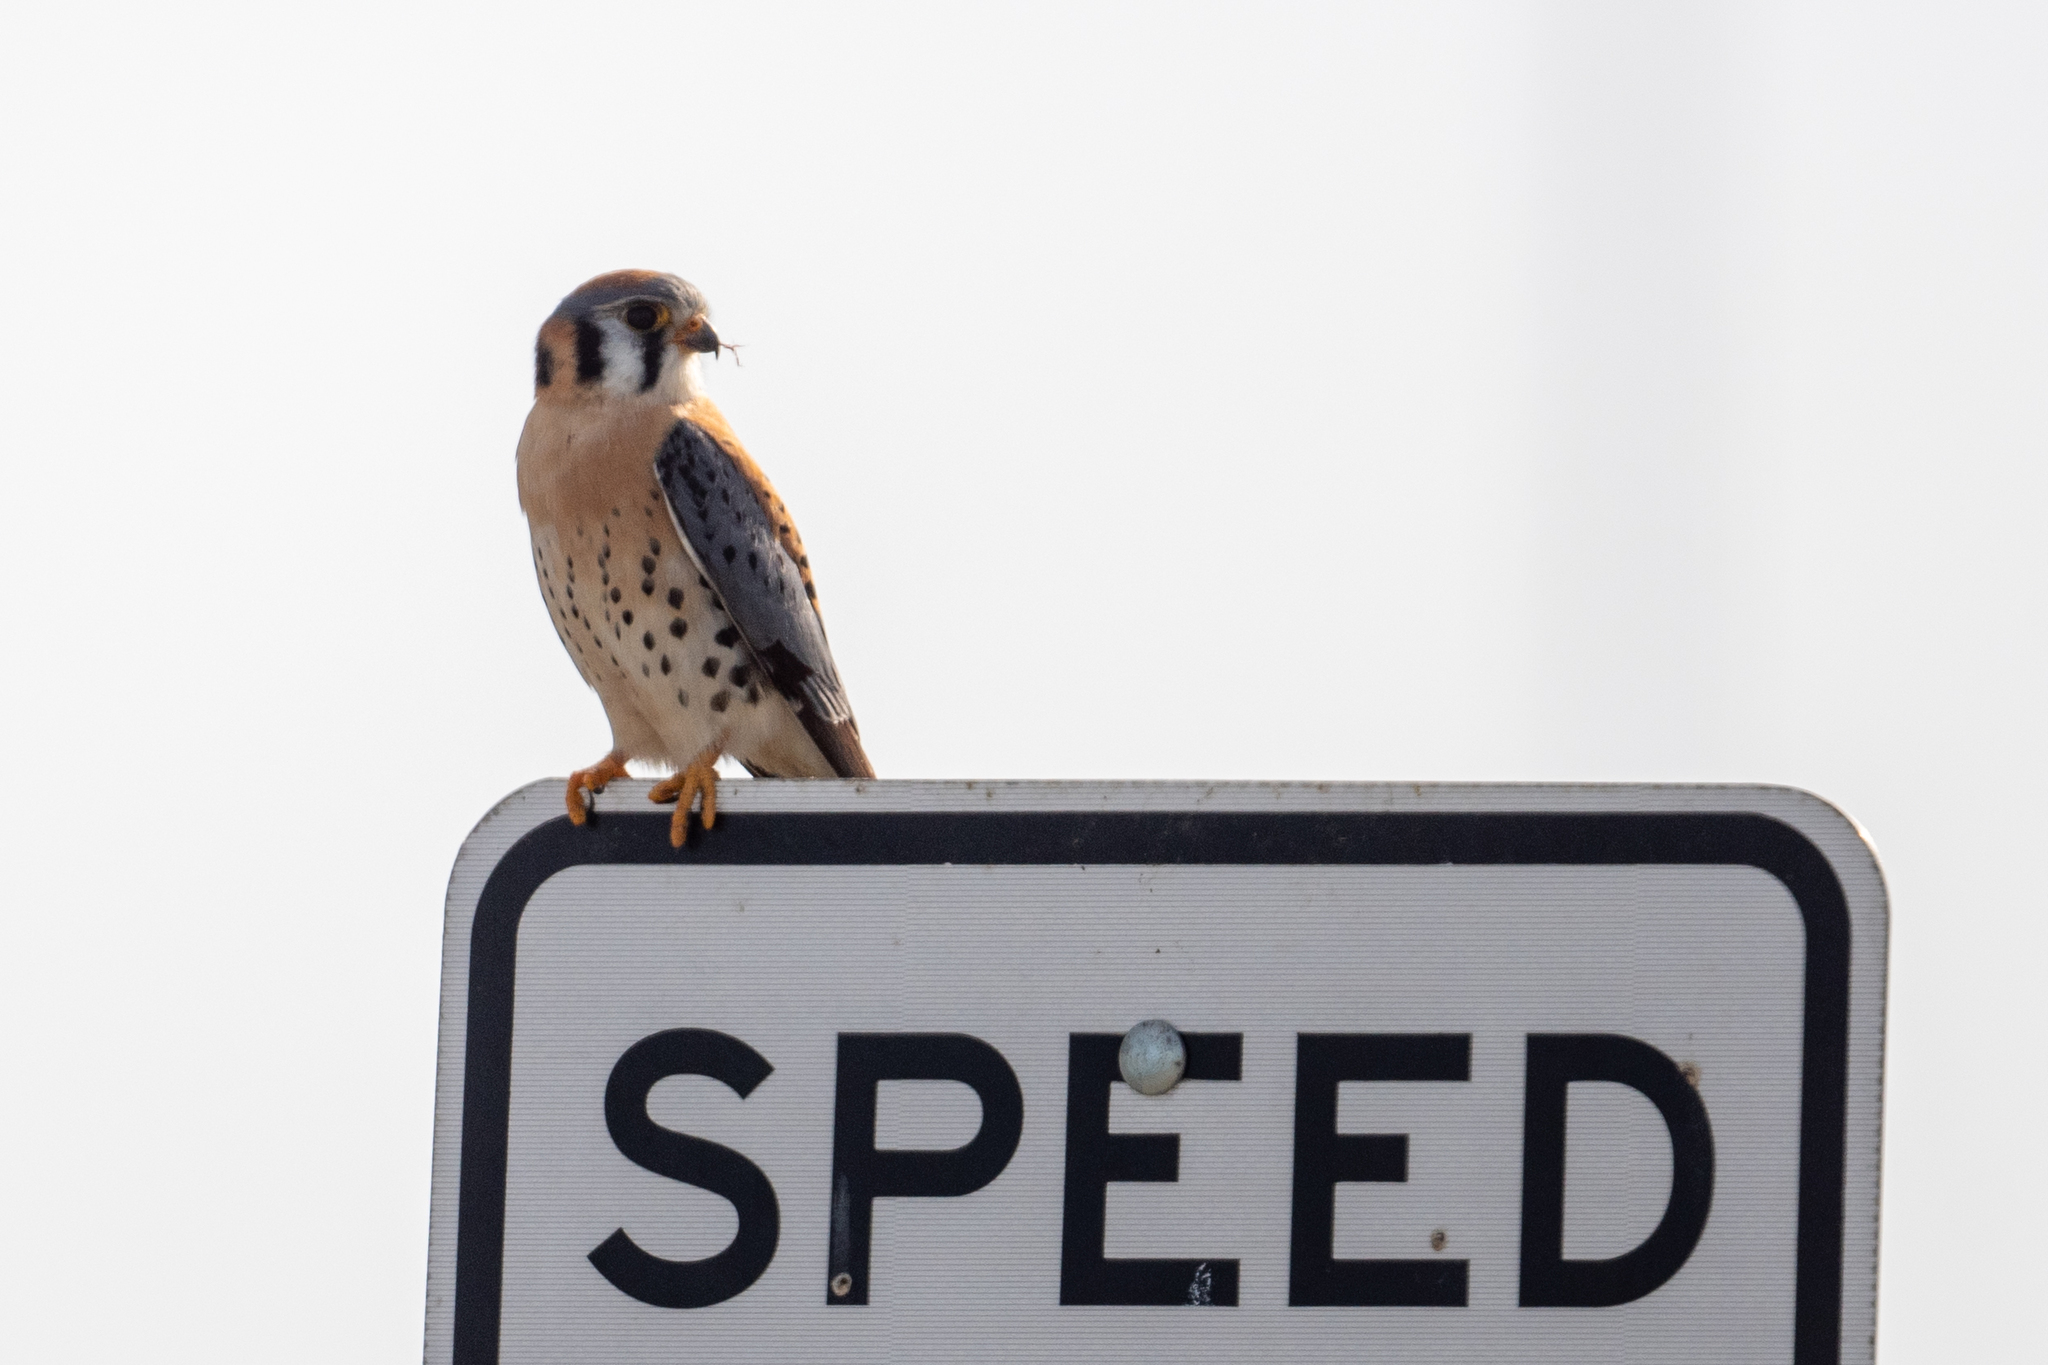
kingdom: Animalia
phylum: Chordata
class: Aves
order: Falconiformes
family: Falconidae
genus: Falco
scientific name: Falco sparverius
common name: American kestrel
